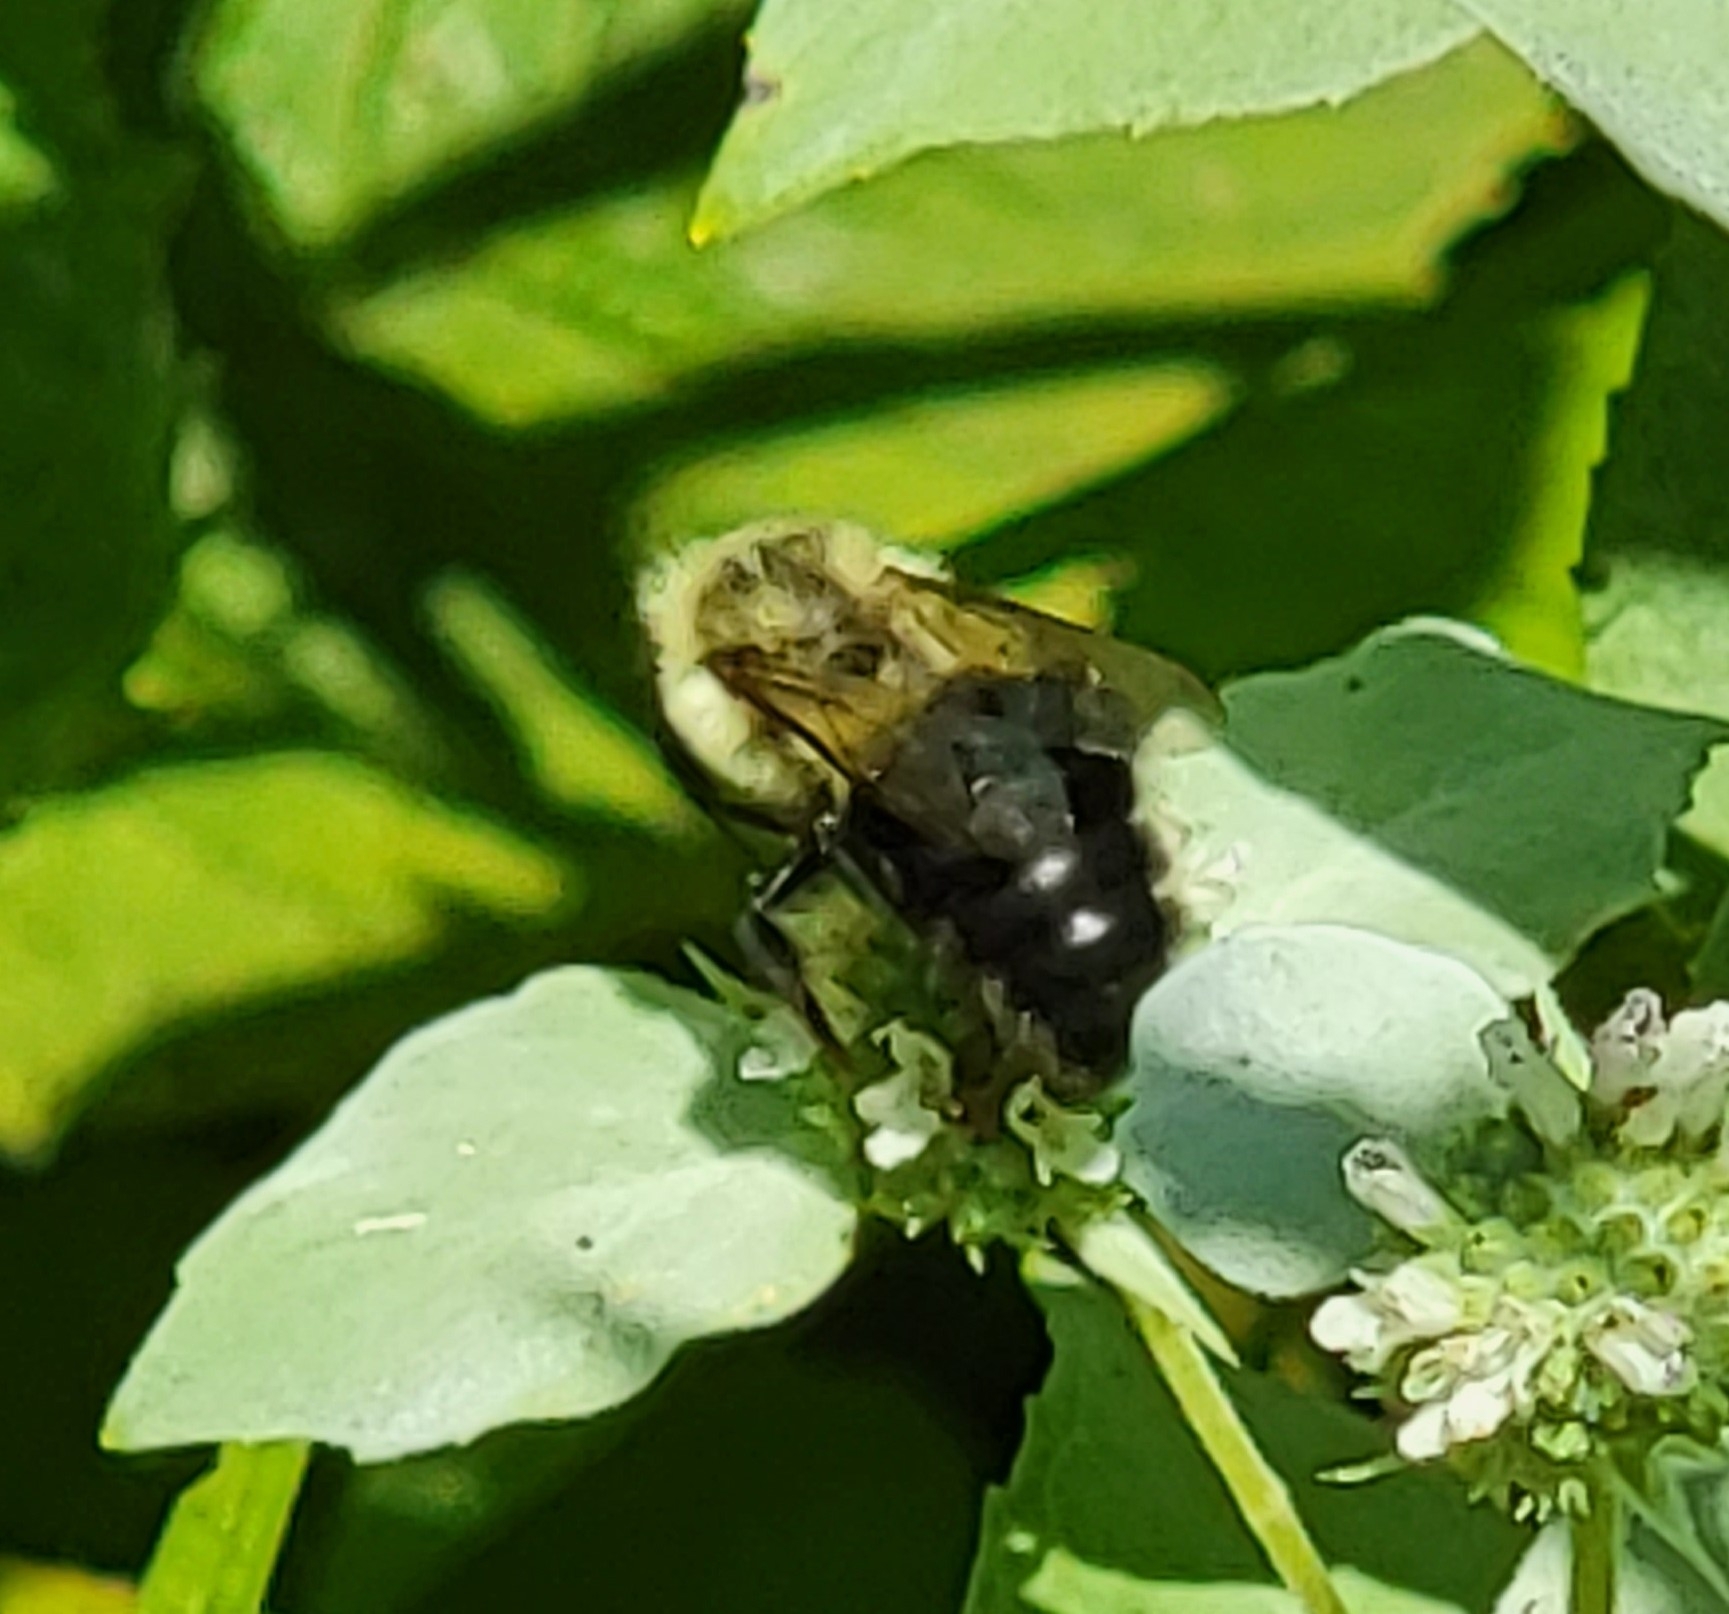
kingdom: Animalia
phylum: Arthropoda
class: Insecta
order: Hymenoptera
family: Apidae
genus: Bombus
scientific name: Bombus impatiens
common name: Common eastern bumble bee
